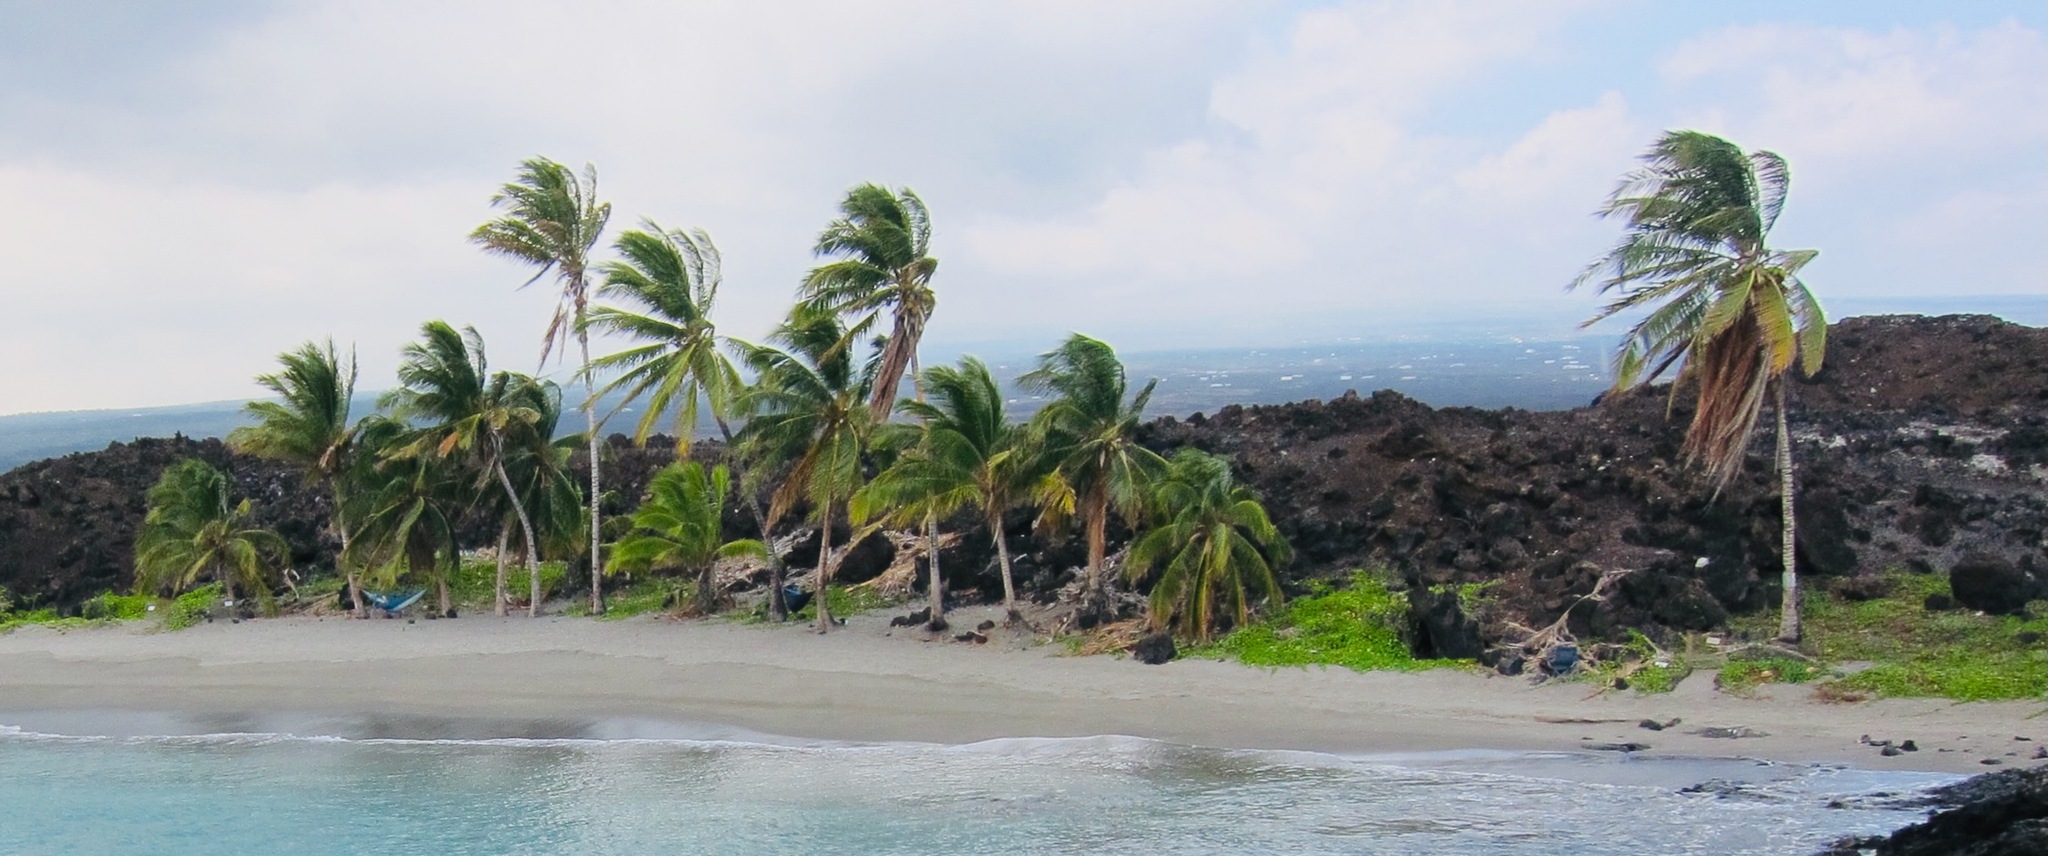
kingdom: Plantae
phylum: Tracheophyta
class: Liliopsida
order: Arecales
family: Arecaceae
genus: Cocos
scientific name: Cocos nucifera
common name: Coconut palm
